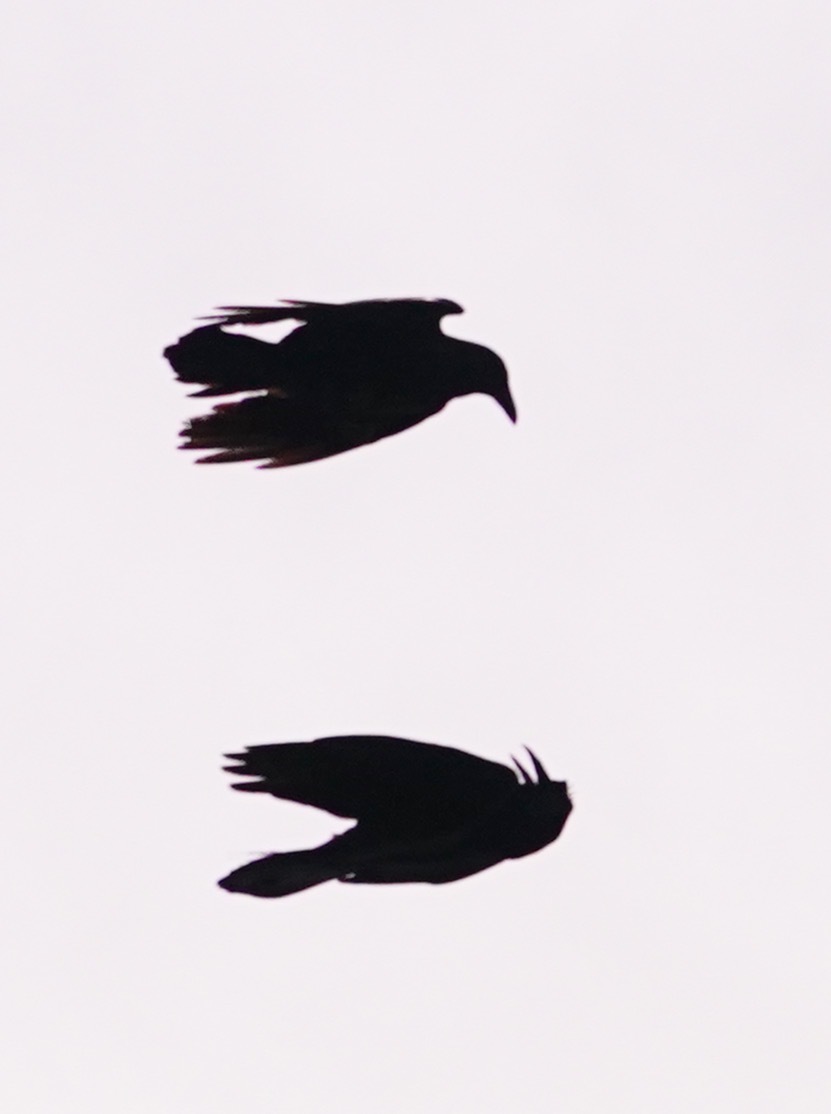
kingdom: Animalia
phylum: Chordata
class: Aves
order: Passeriformes
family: Corvidae
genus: Corvus
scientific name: Corvus corax
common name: Common raven
